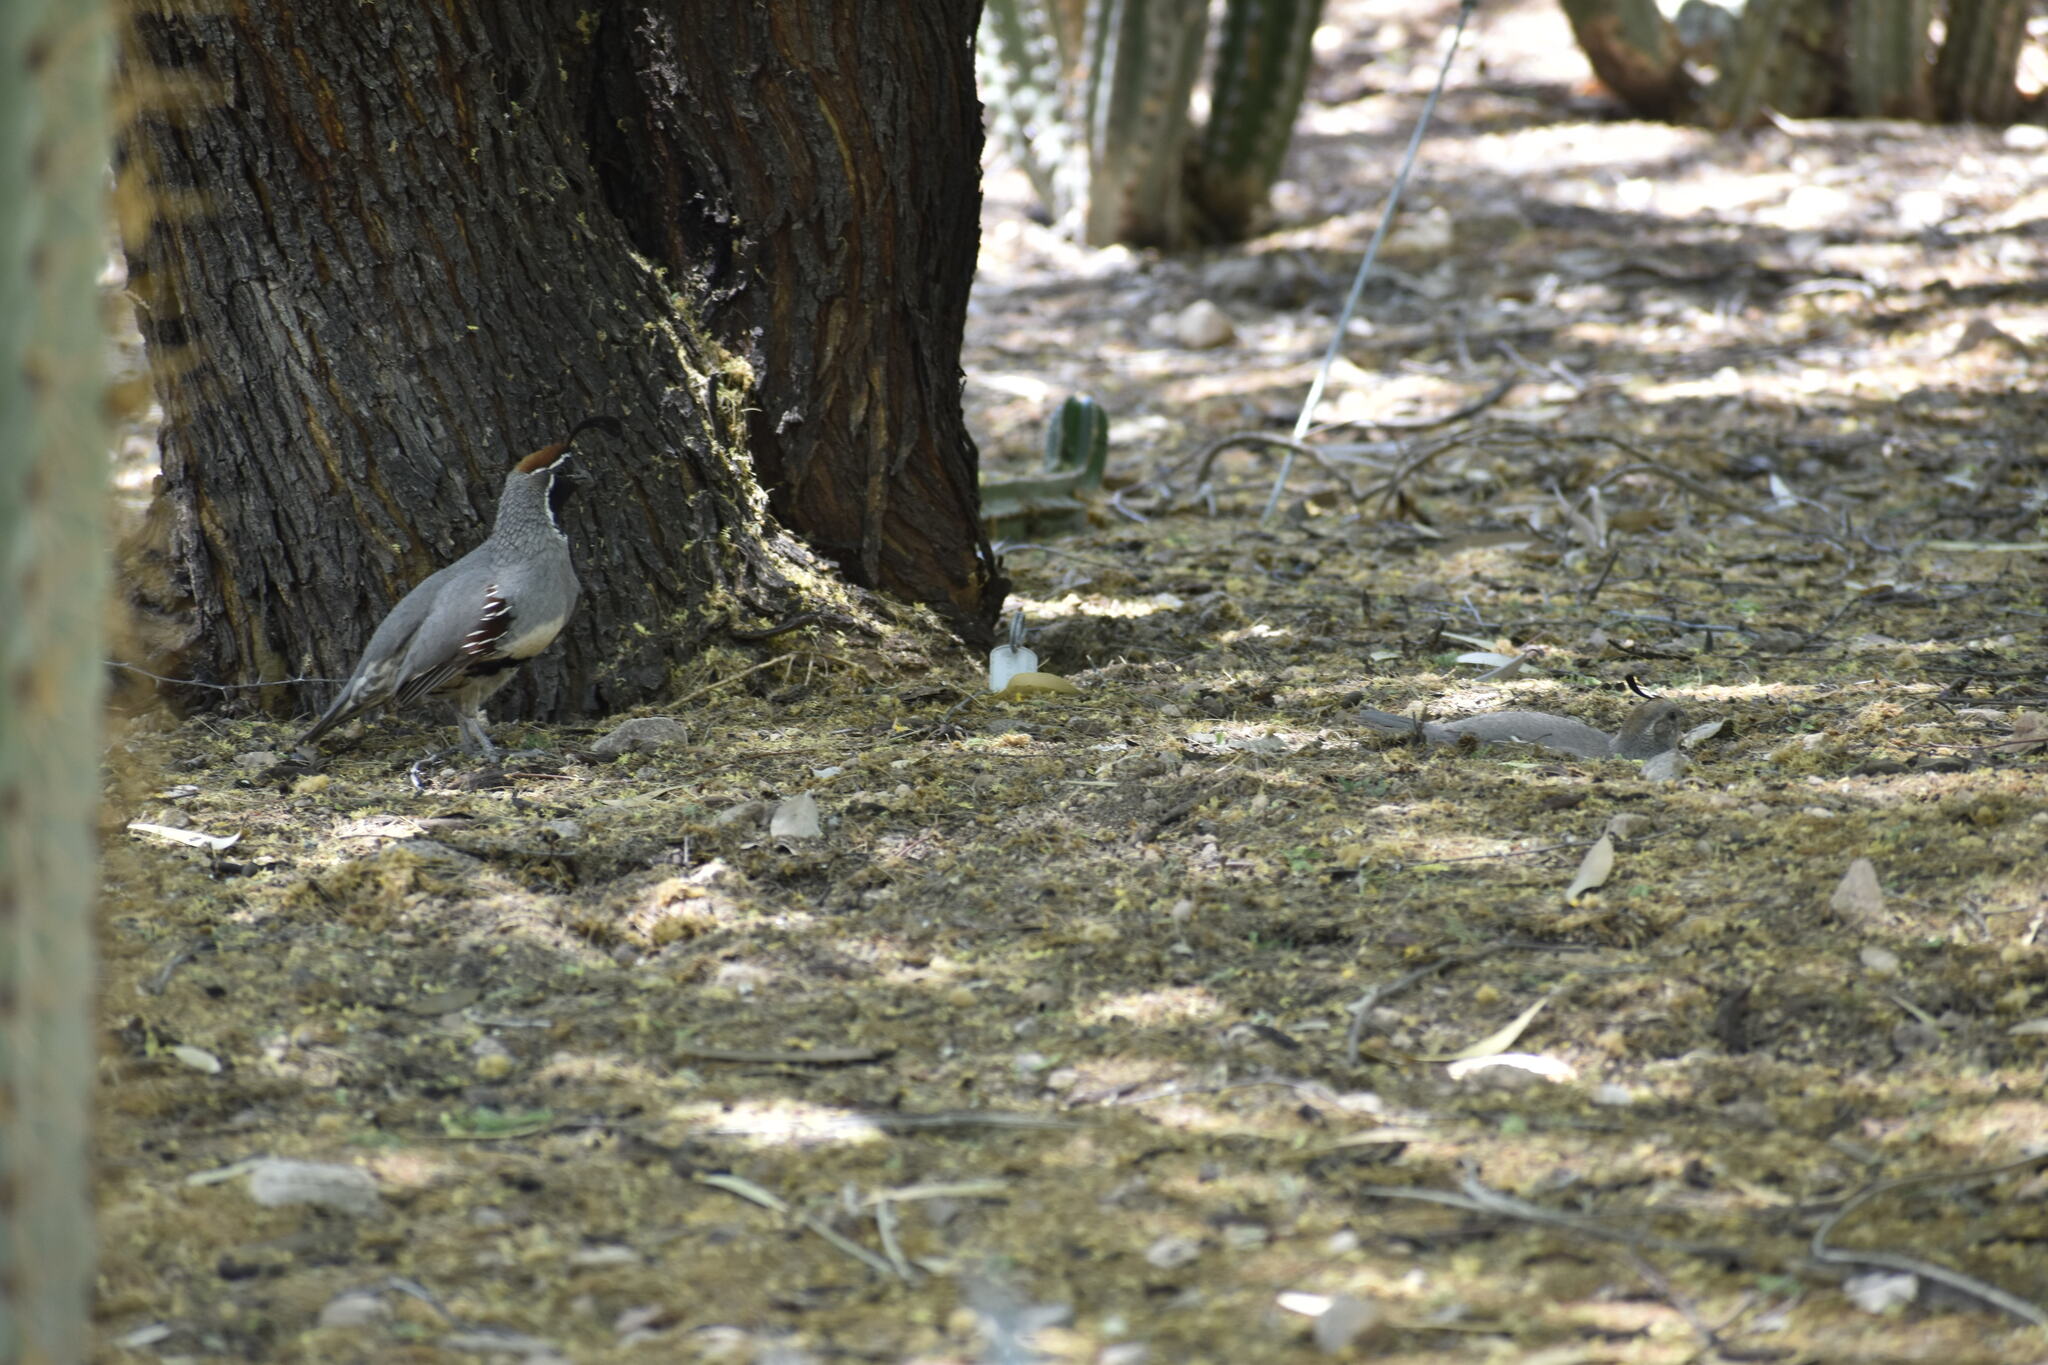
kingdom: Animalia
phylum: Chordata
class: Aves
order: Galliformes
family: Odontophoridae
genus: Callipepla
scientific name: Callipepla gambelii
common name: Gambel's quail
